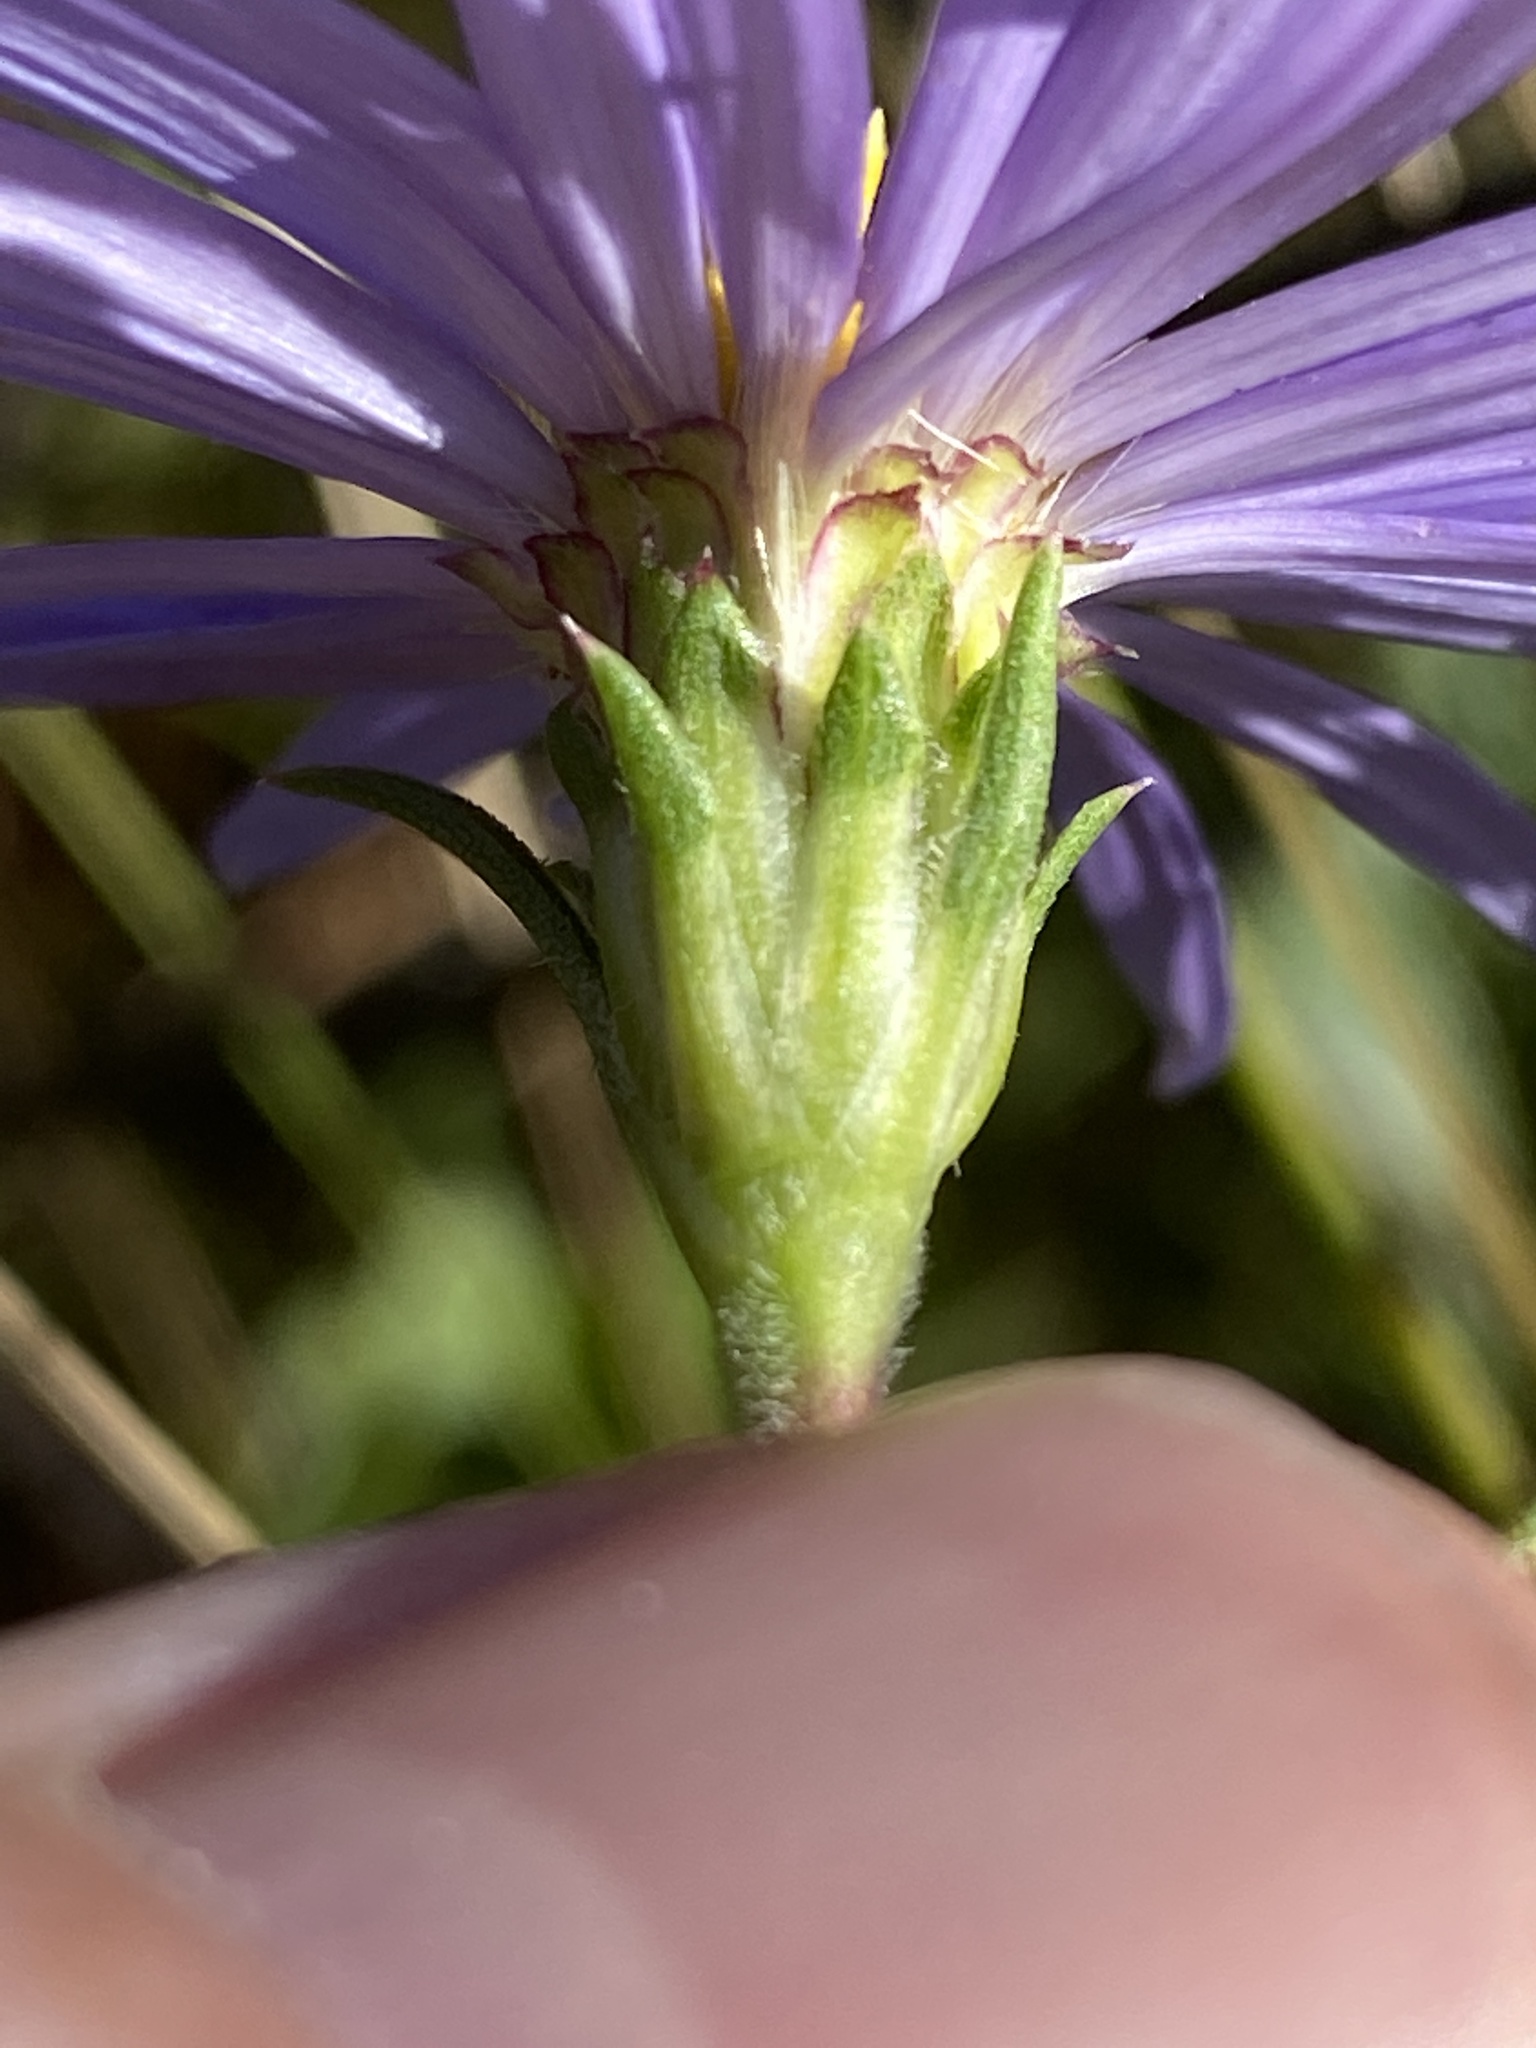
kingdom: Plantae
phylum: Tracheophyta
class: Magnoliopsida
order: Asterales
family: Asteraceae
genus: Eurybia
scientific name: Eurybia paludosa
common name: Southern swamp aster
